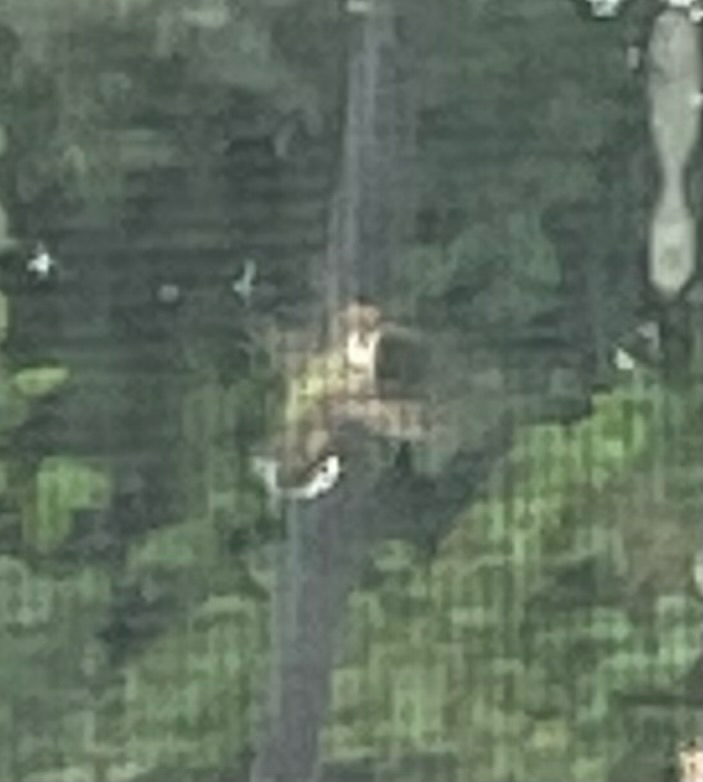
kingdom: Animalia
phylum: Chordata
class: Aves
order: Apodiformes
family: Trochilidae
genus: Archilochus
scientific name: Archilochus colubris
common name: Ruby-throated hummingbird
